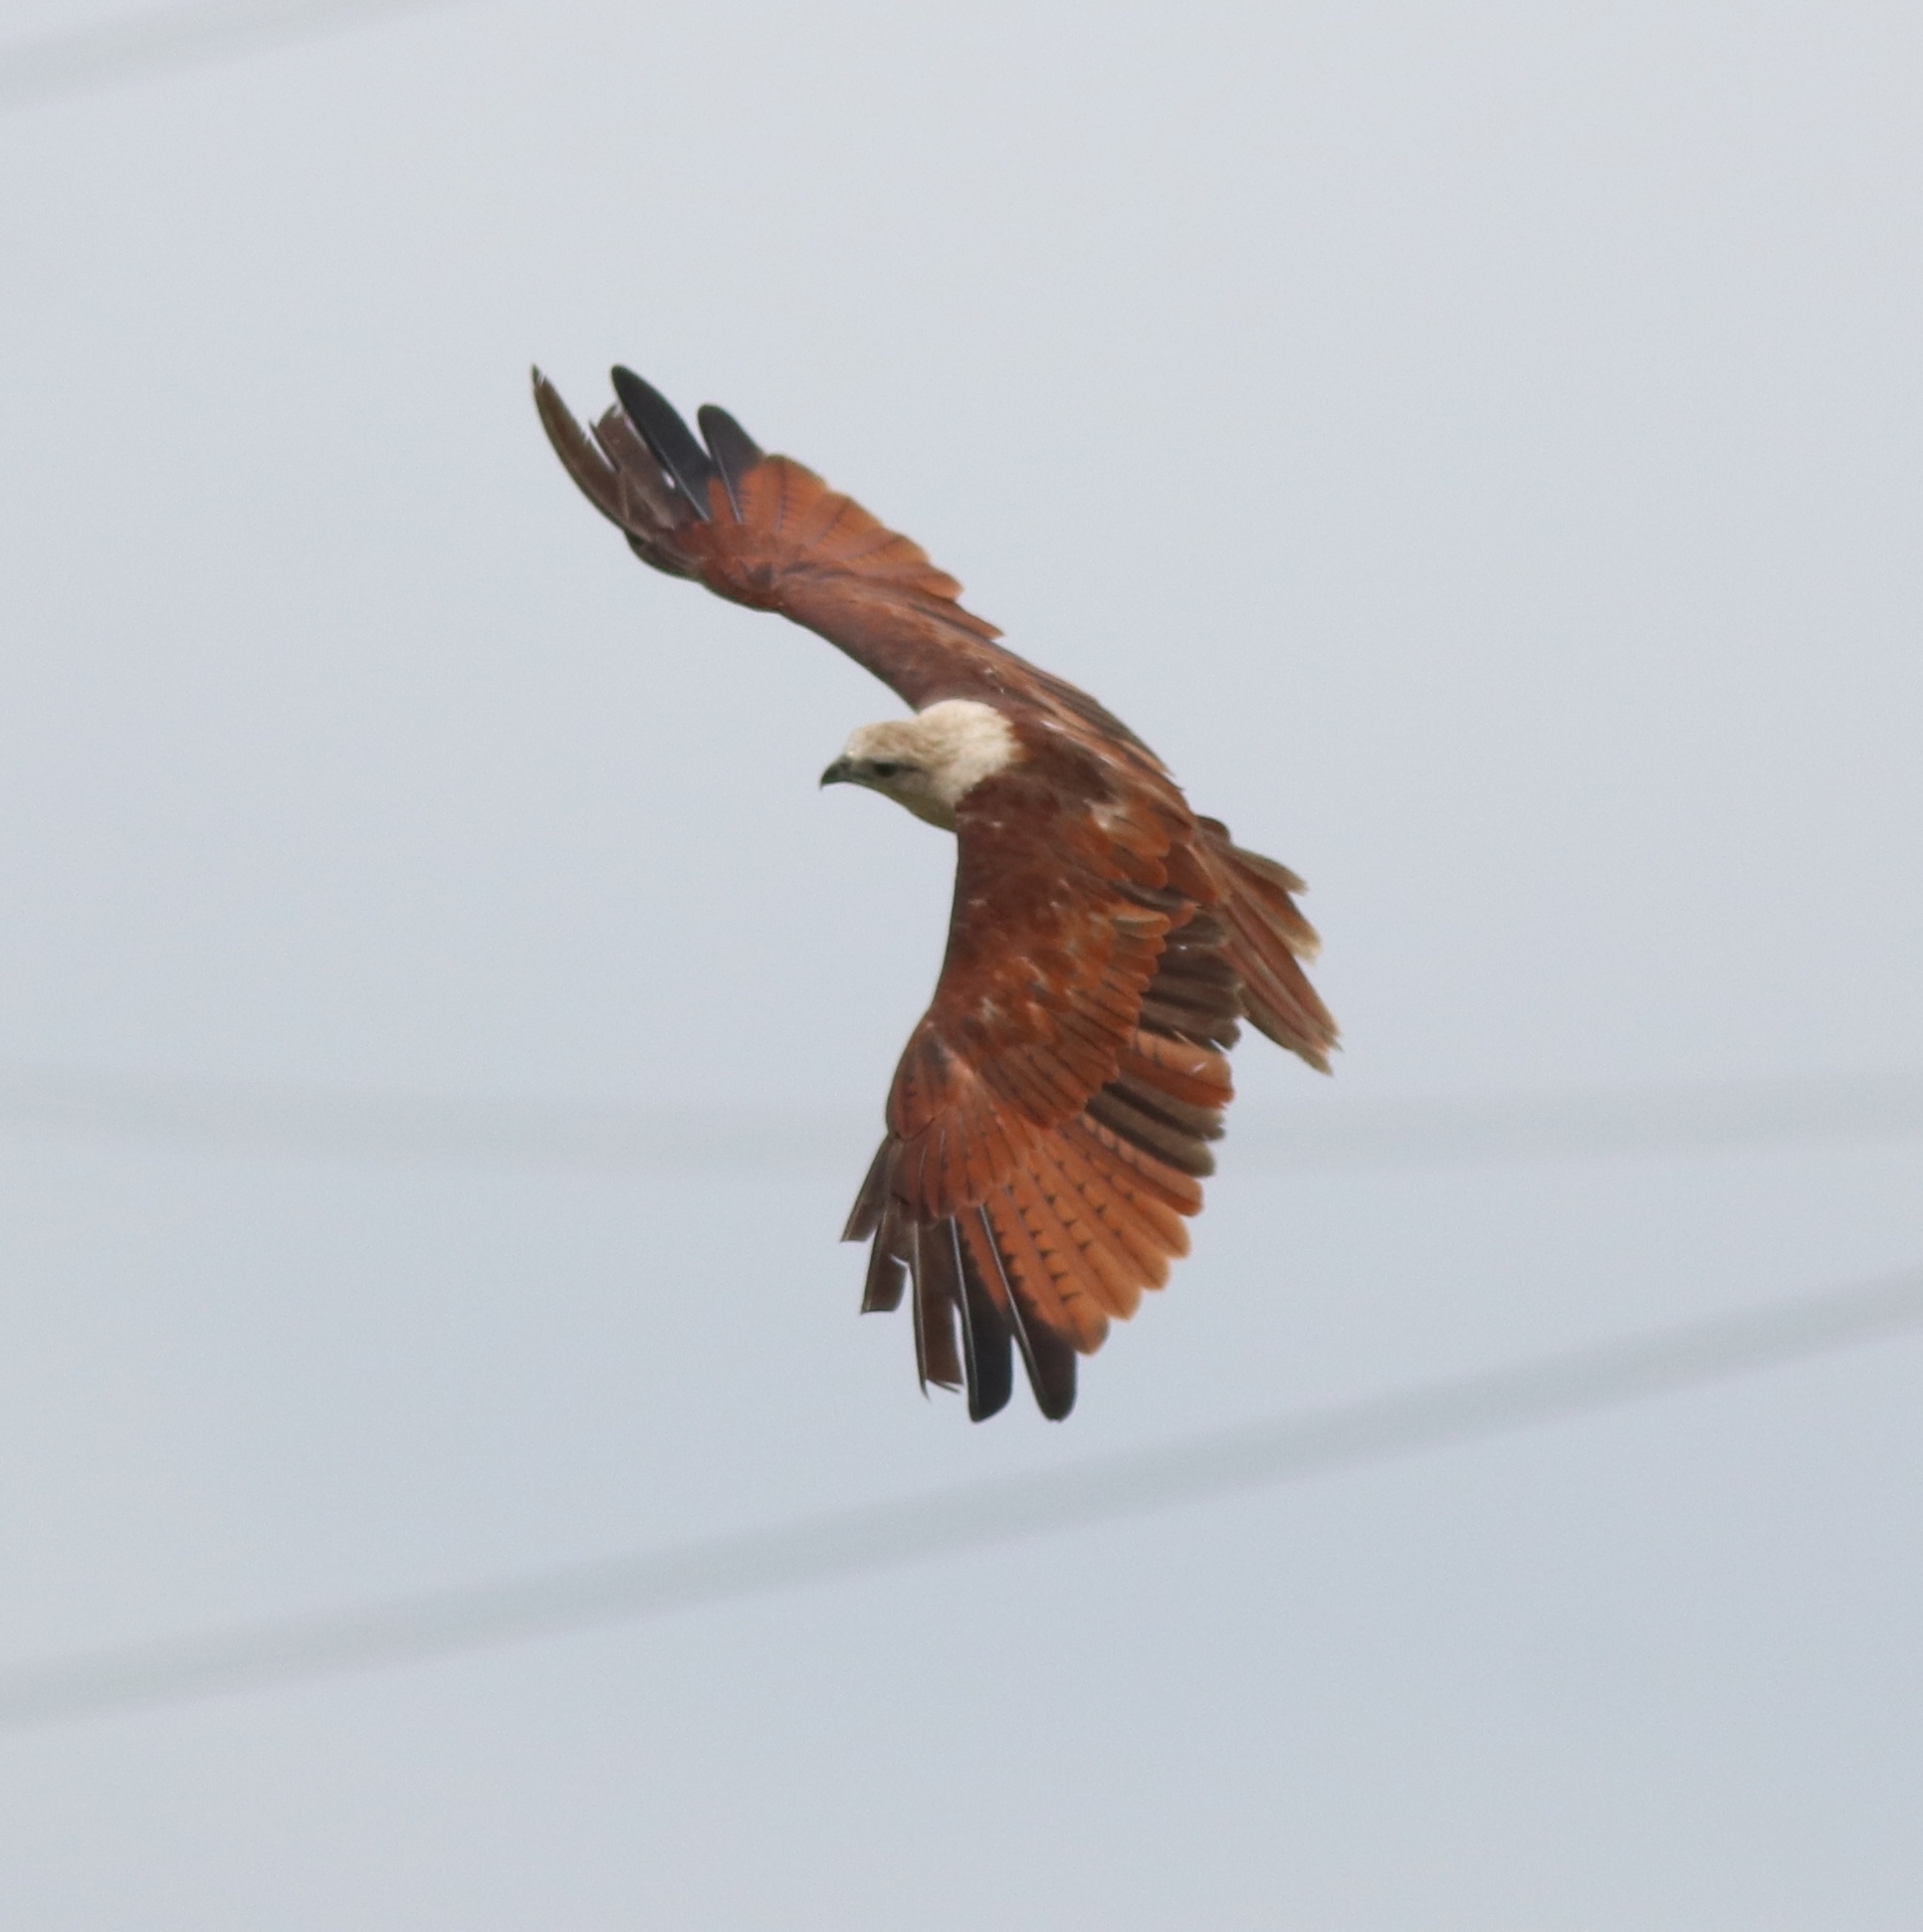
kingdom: Animalia
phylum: Chordata
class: Aves
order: Accipitriformes
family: Accipitridae
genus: Haliastur
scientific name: Haliastur indus
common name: Brahminy kite
